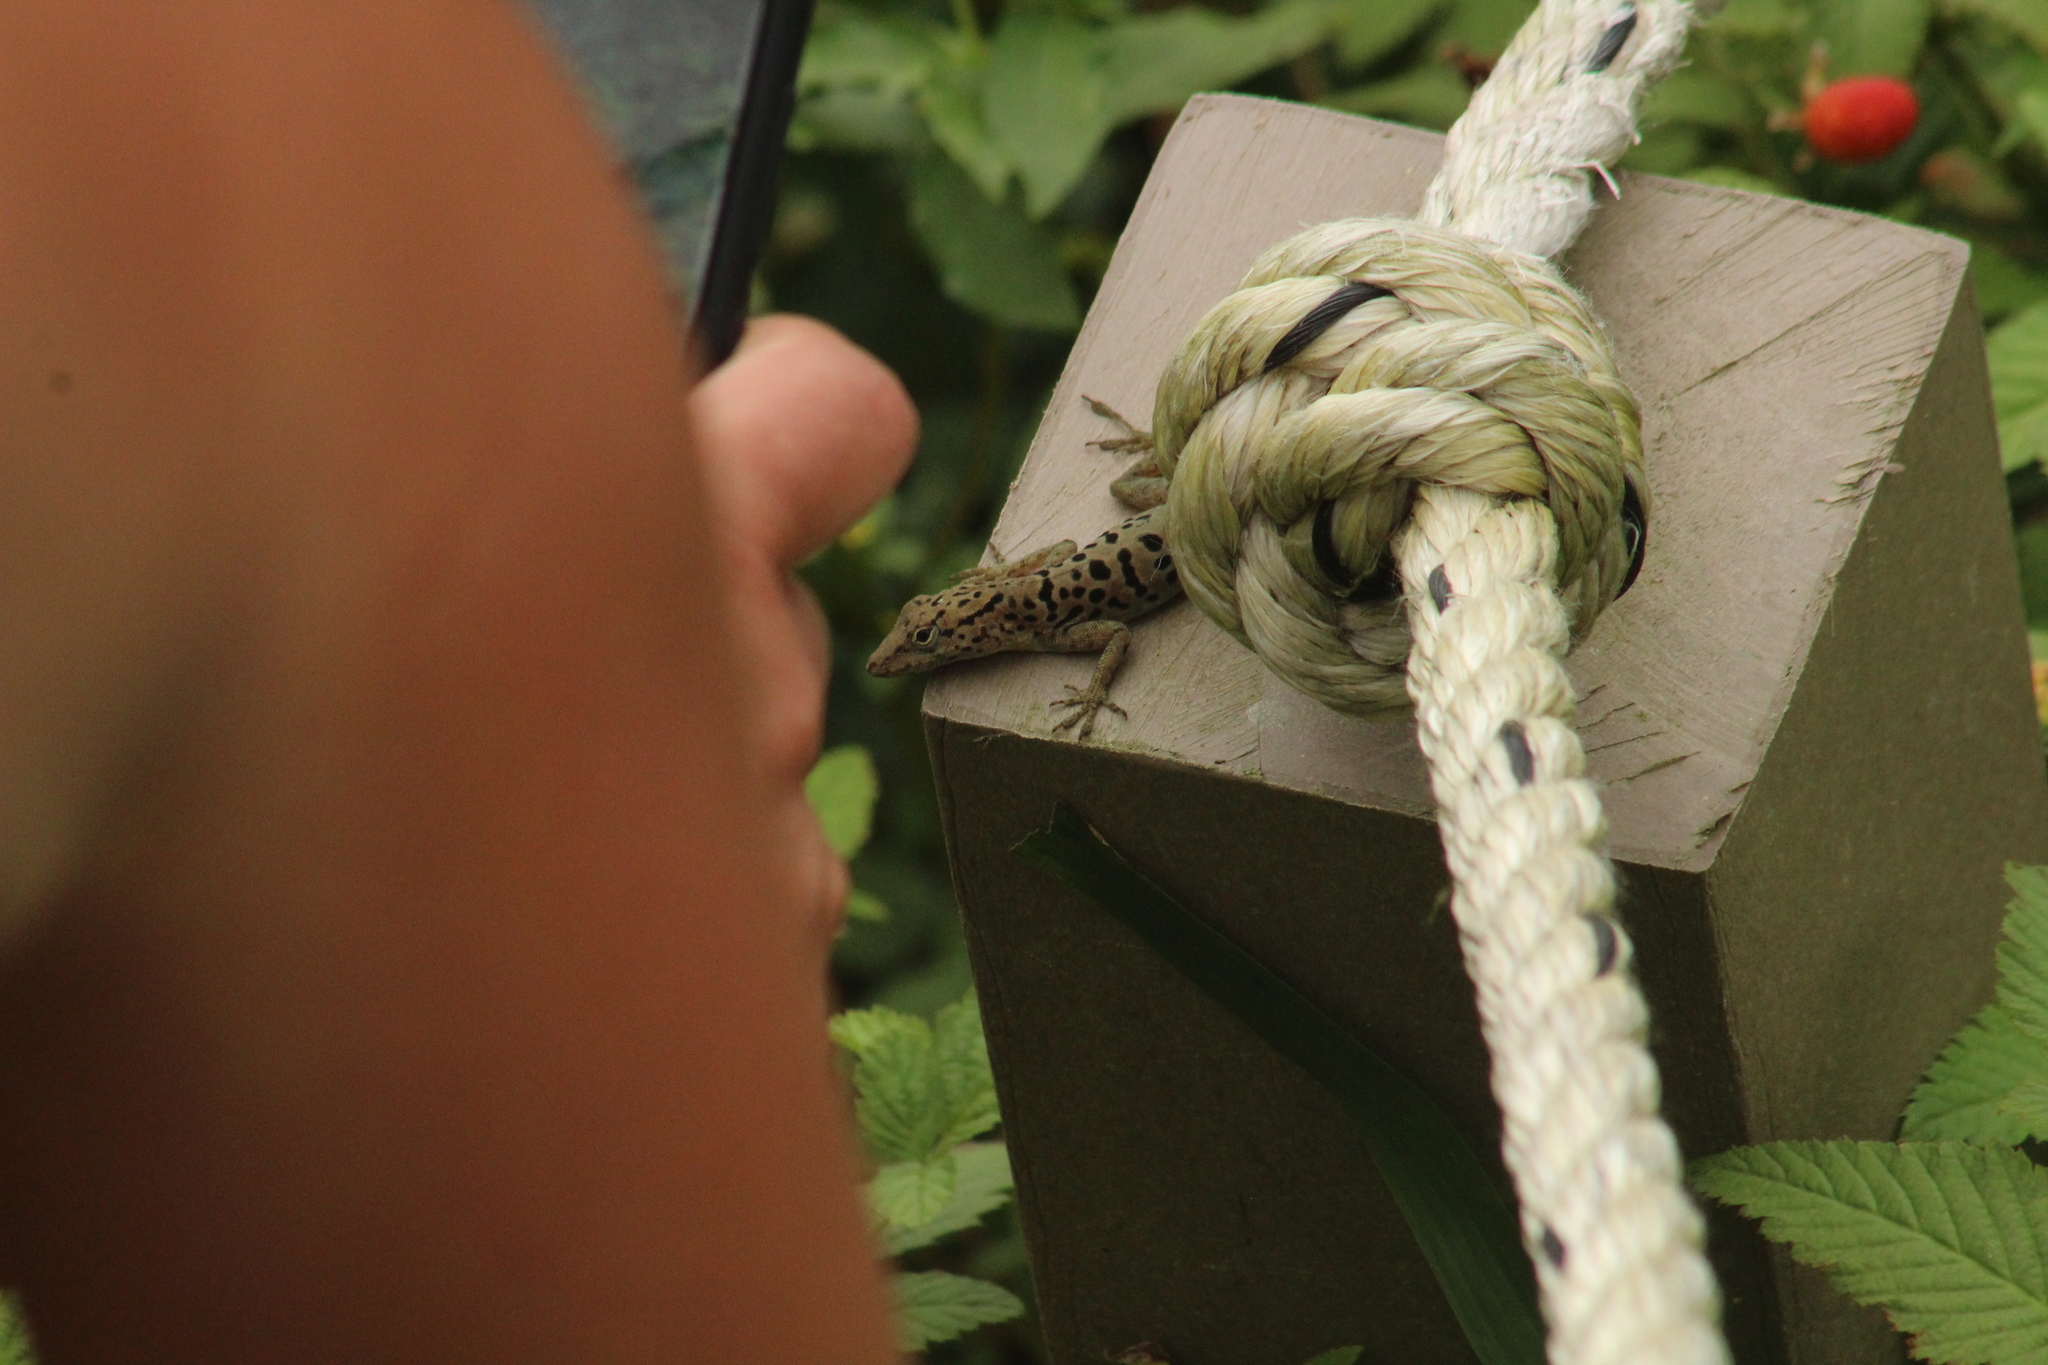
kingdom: Animalia
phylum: Chordata
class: Squamata
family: Dactyloidae
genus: Anolis
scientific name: Anolis sabanus
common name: Saba anole
